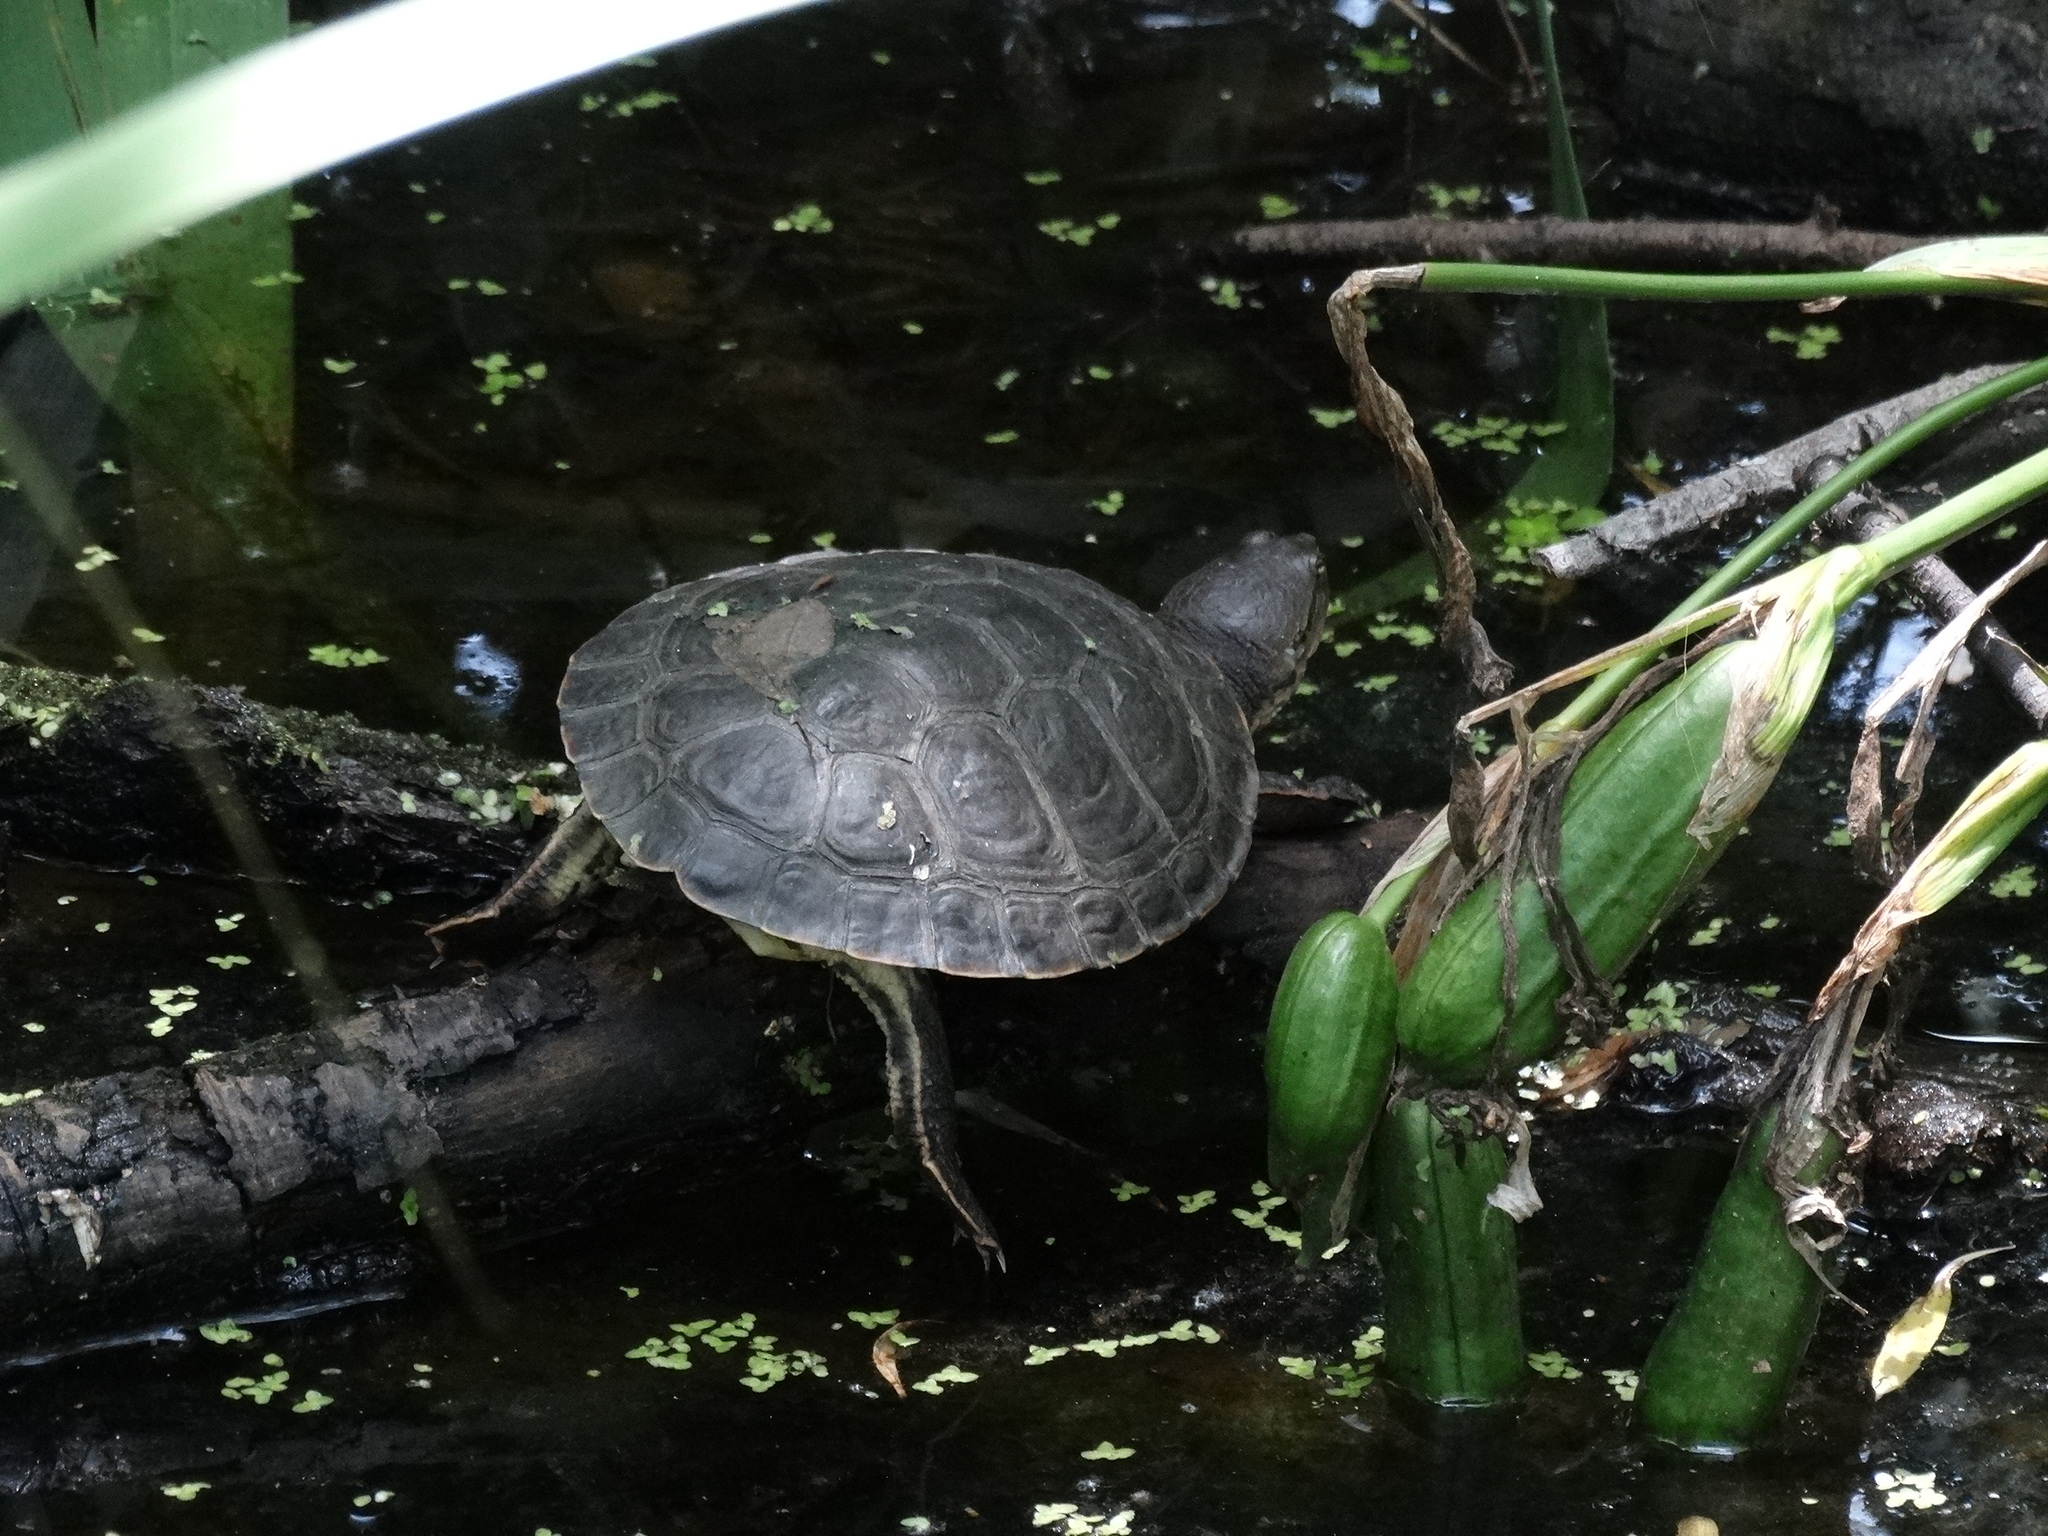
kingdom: Animalia
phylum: Chordata
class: Testudines
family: Chelidae
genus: Phrynops
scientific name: Phrynops hilarii
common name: Side-necked turtle of saint hillaire
